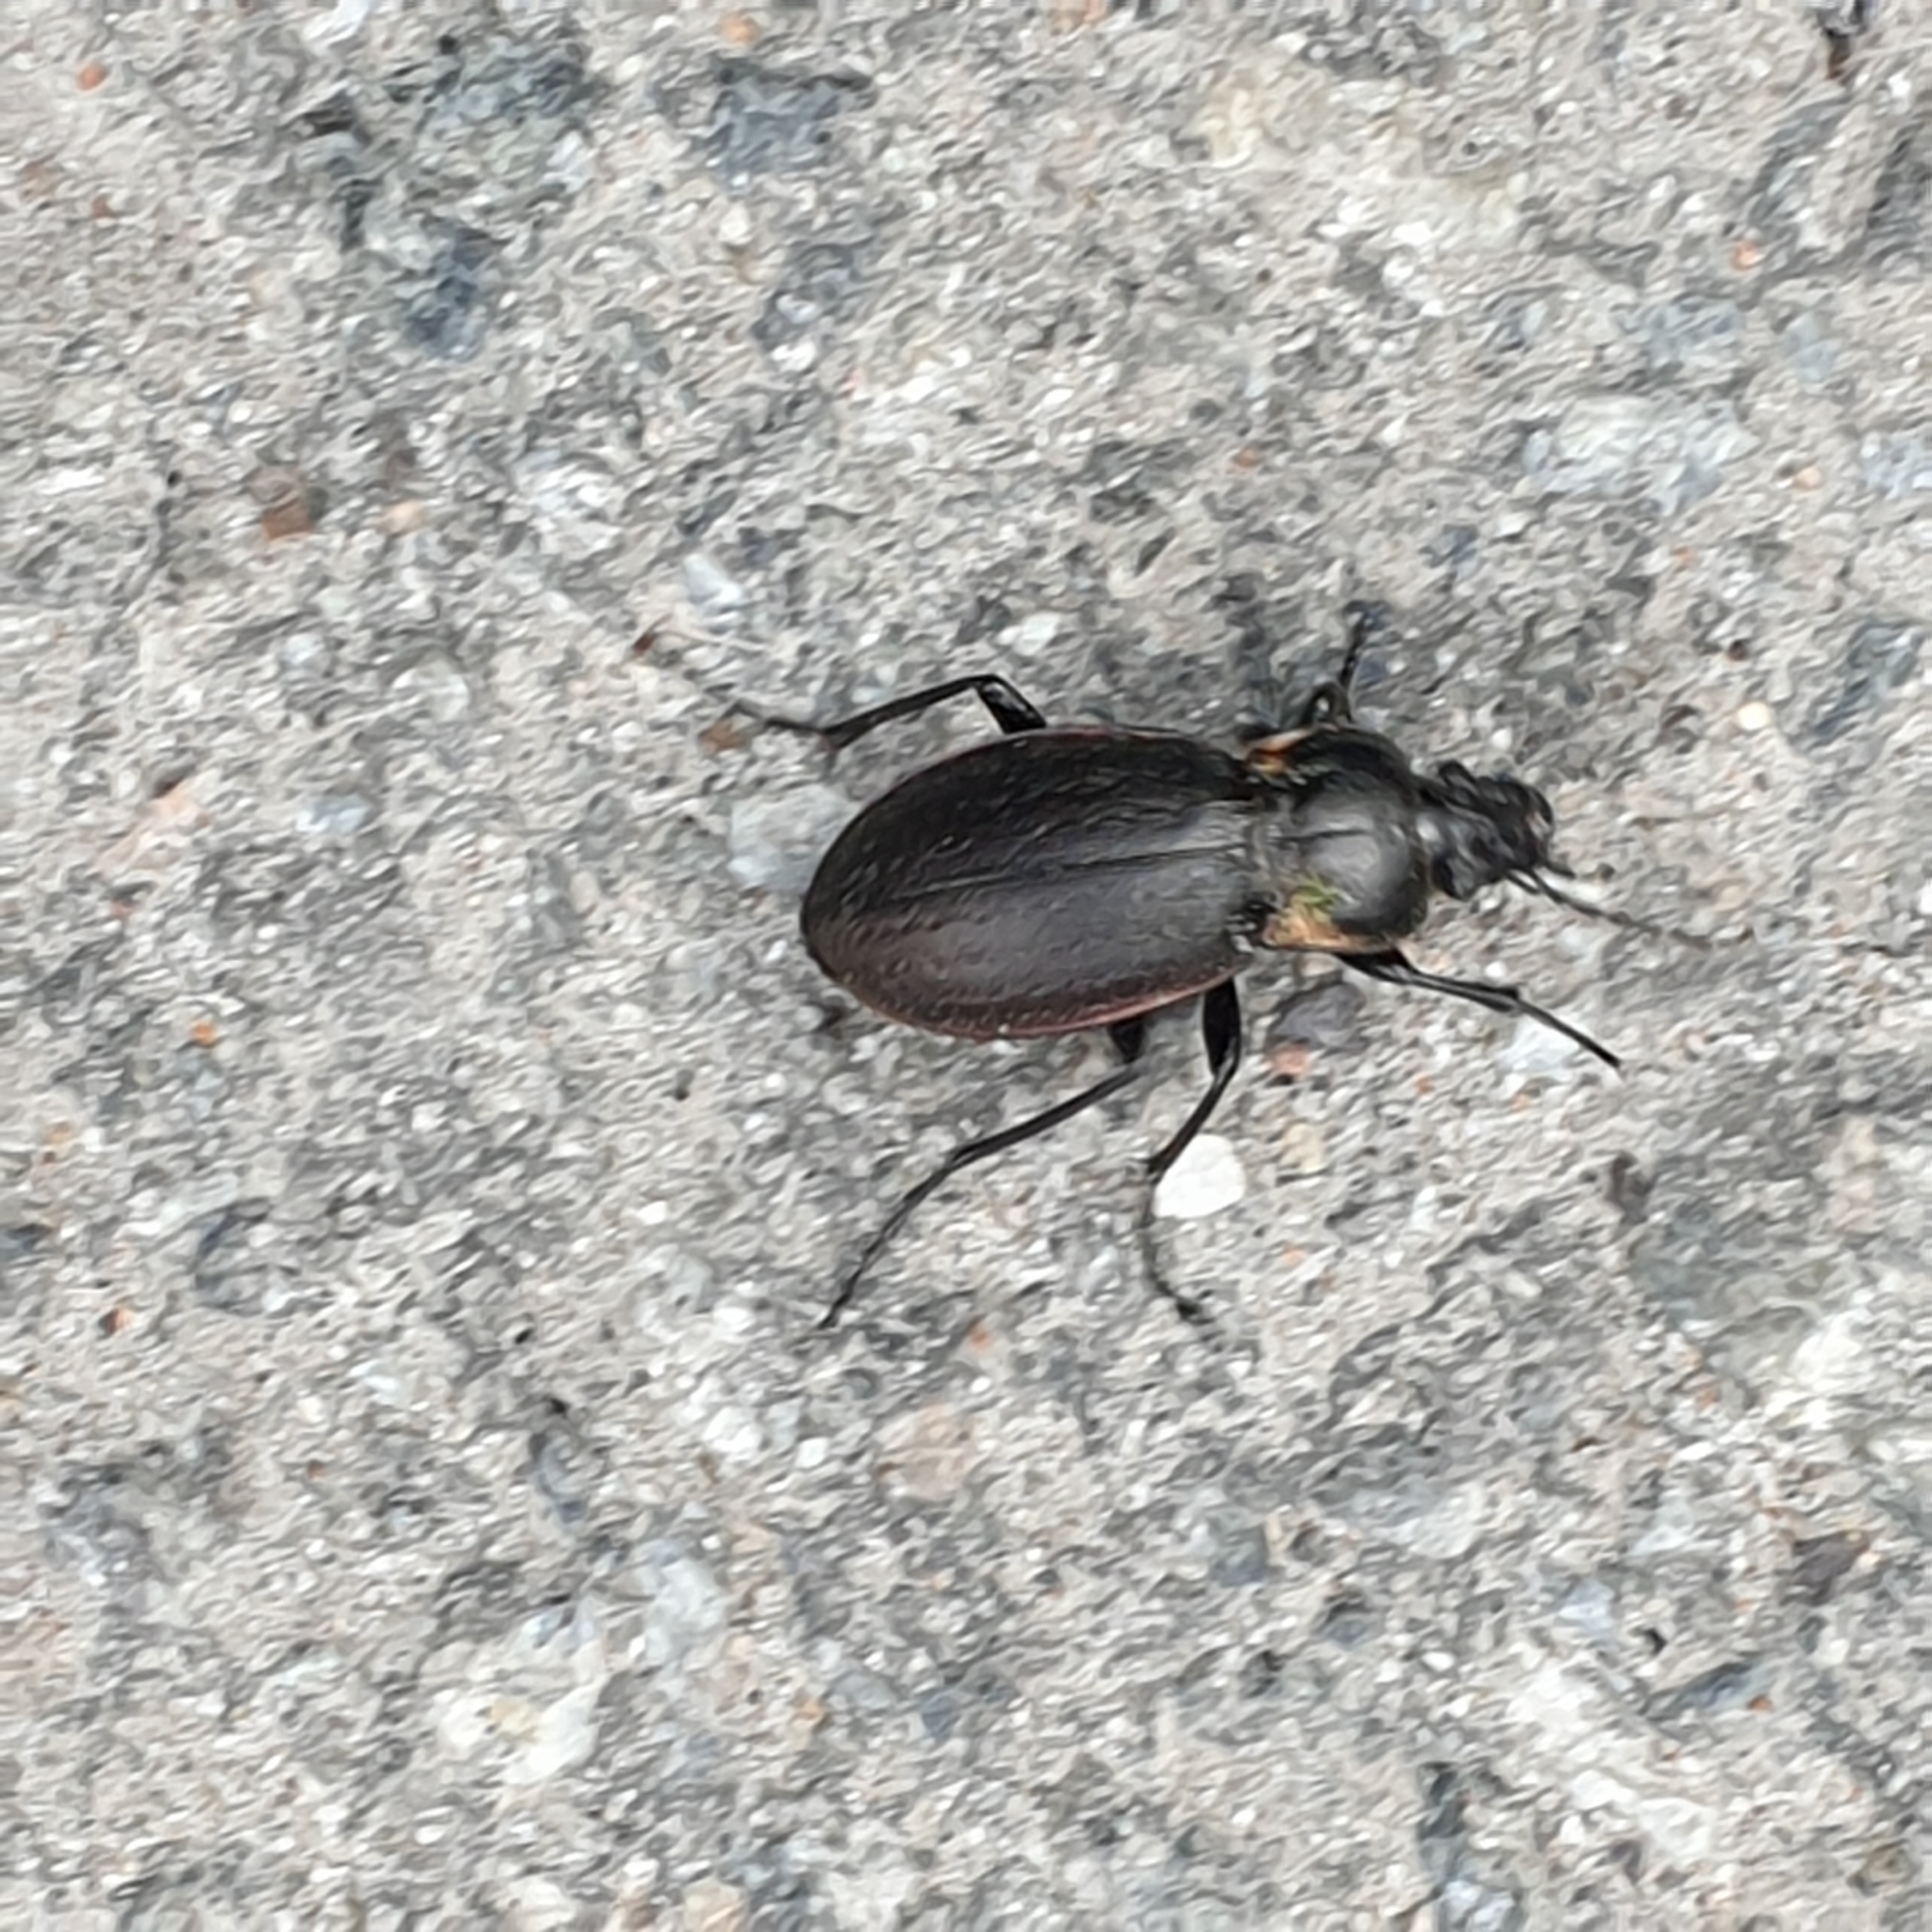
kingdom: Animalia
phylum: Arthropoda
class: Insecta
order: Coleoptera
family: Carabidae
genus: Carabus
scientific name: Carabus nemoralis
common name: European ground beetle
